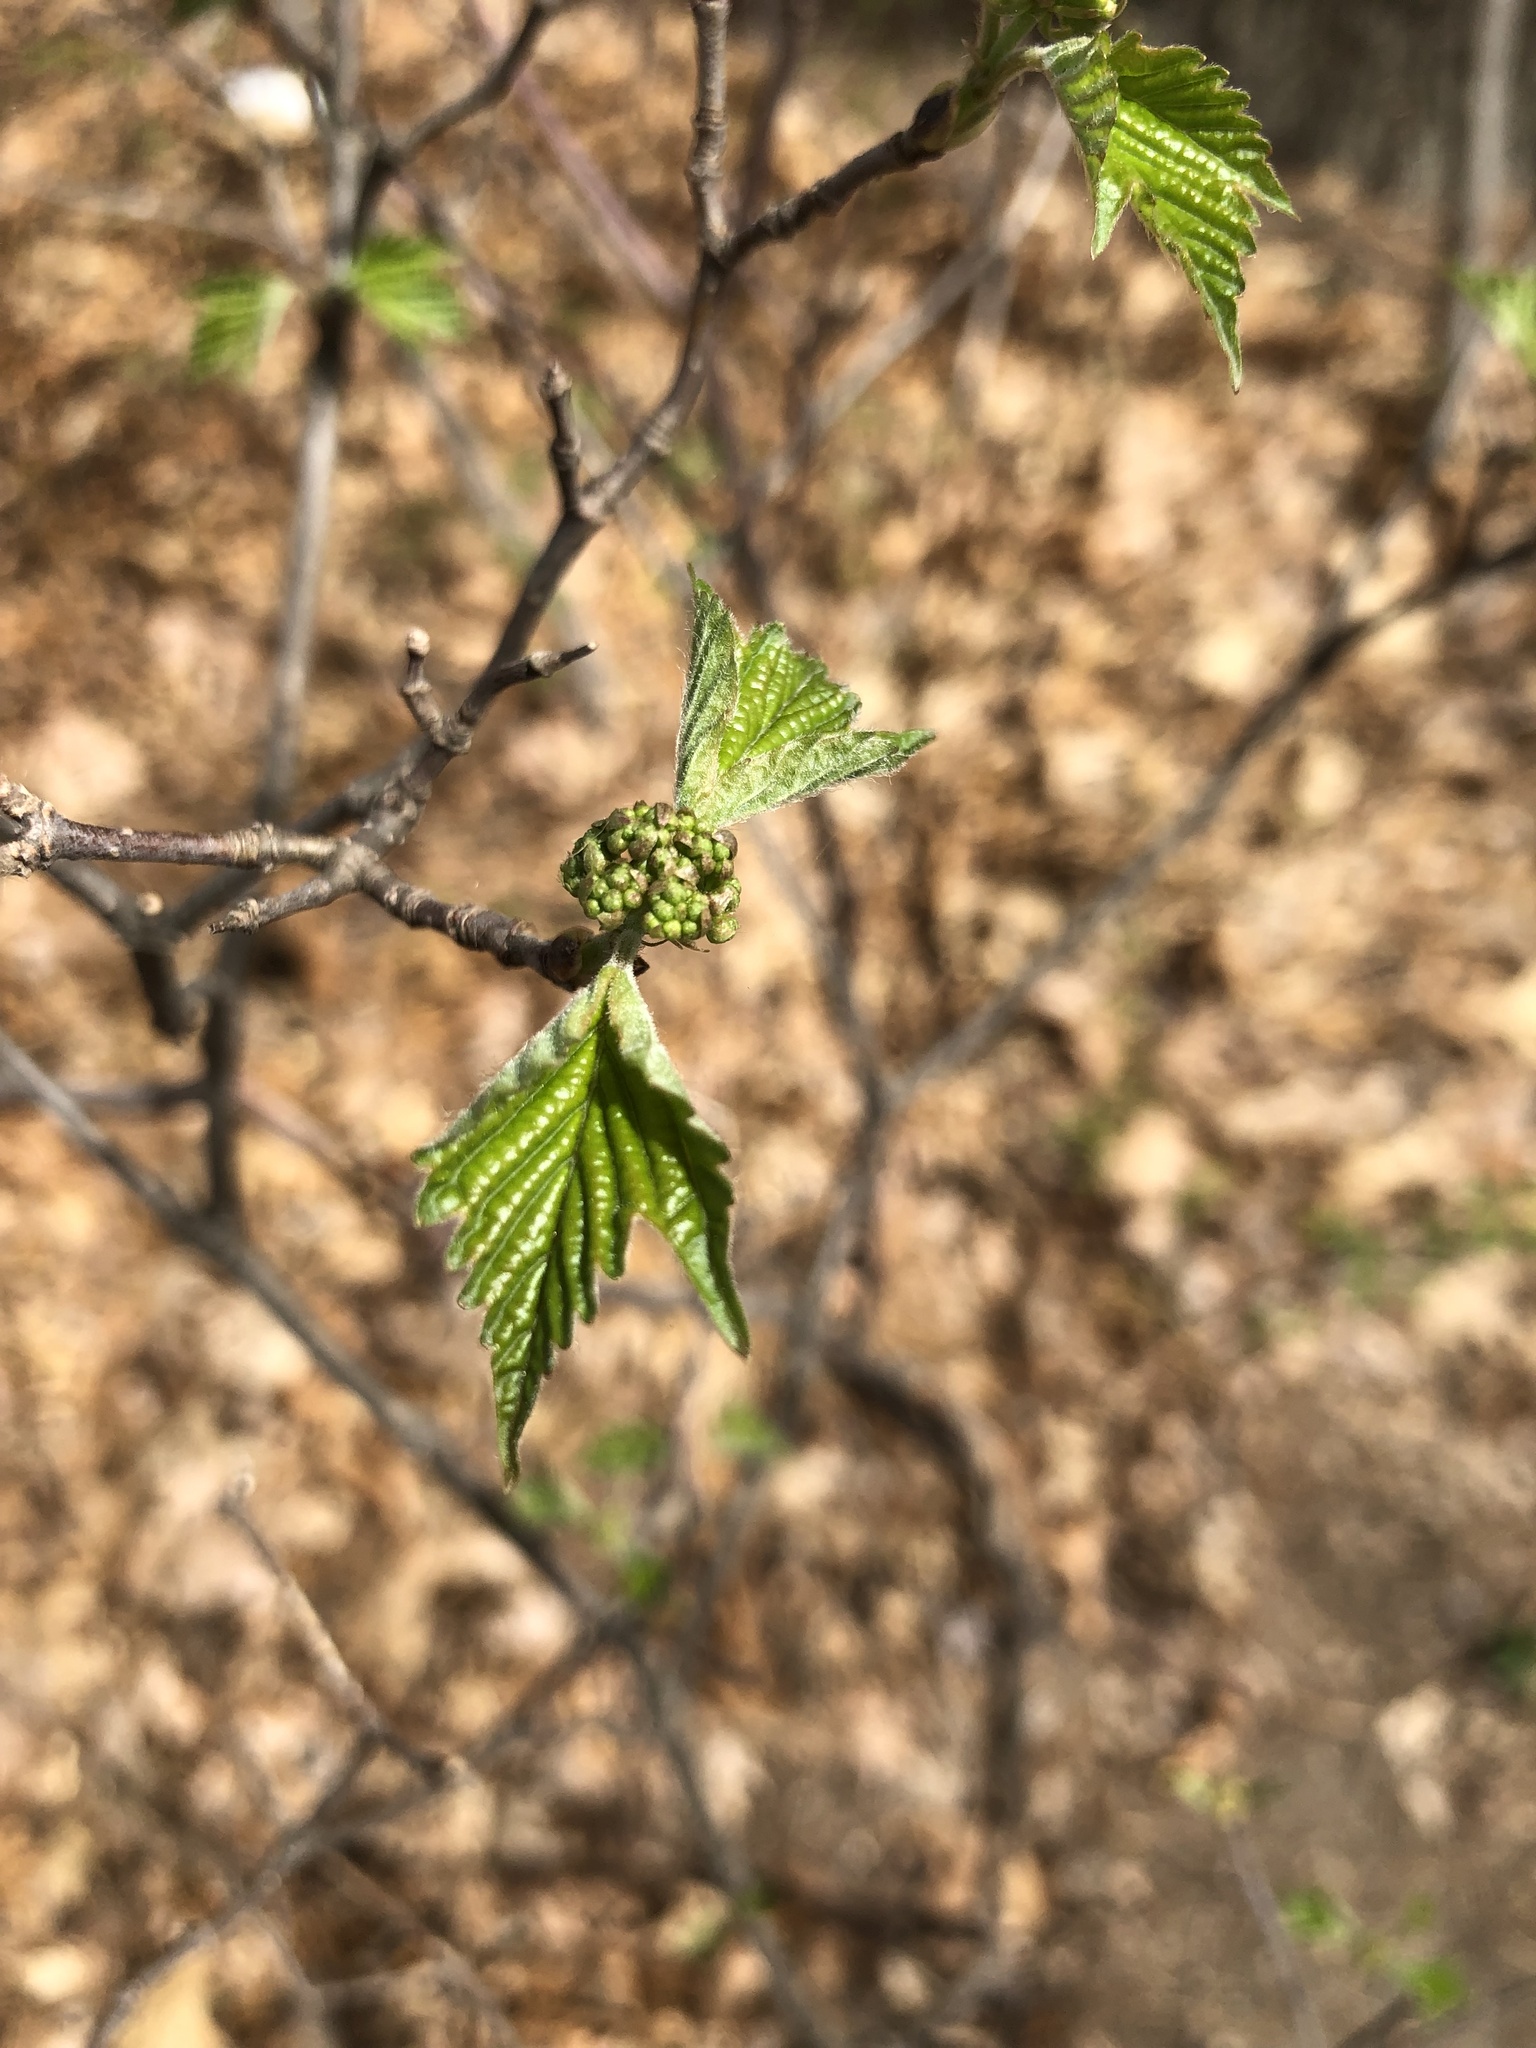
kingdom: Plantae
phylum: Tracheophyta
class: Magnoliopsida
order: Dipsacales
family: Viburnaceae
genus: Viburnum
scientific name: Viburnum acerifolium
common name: Dockmackie
